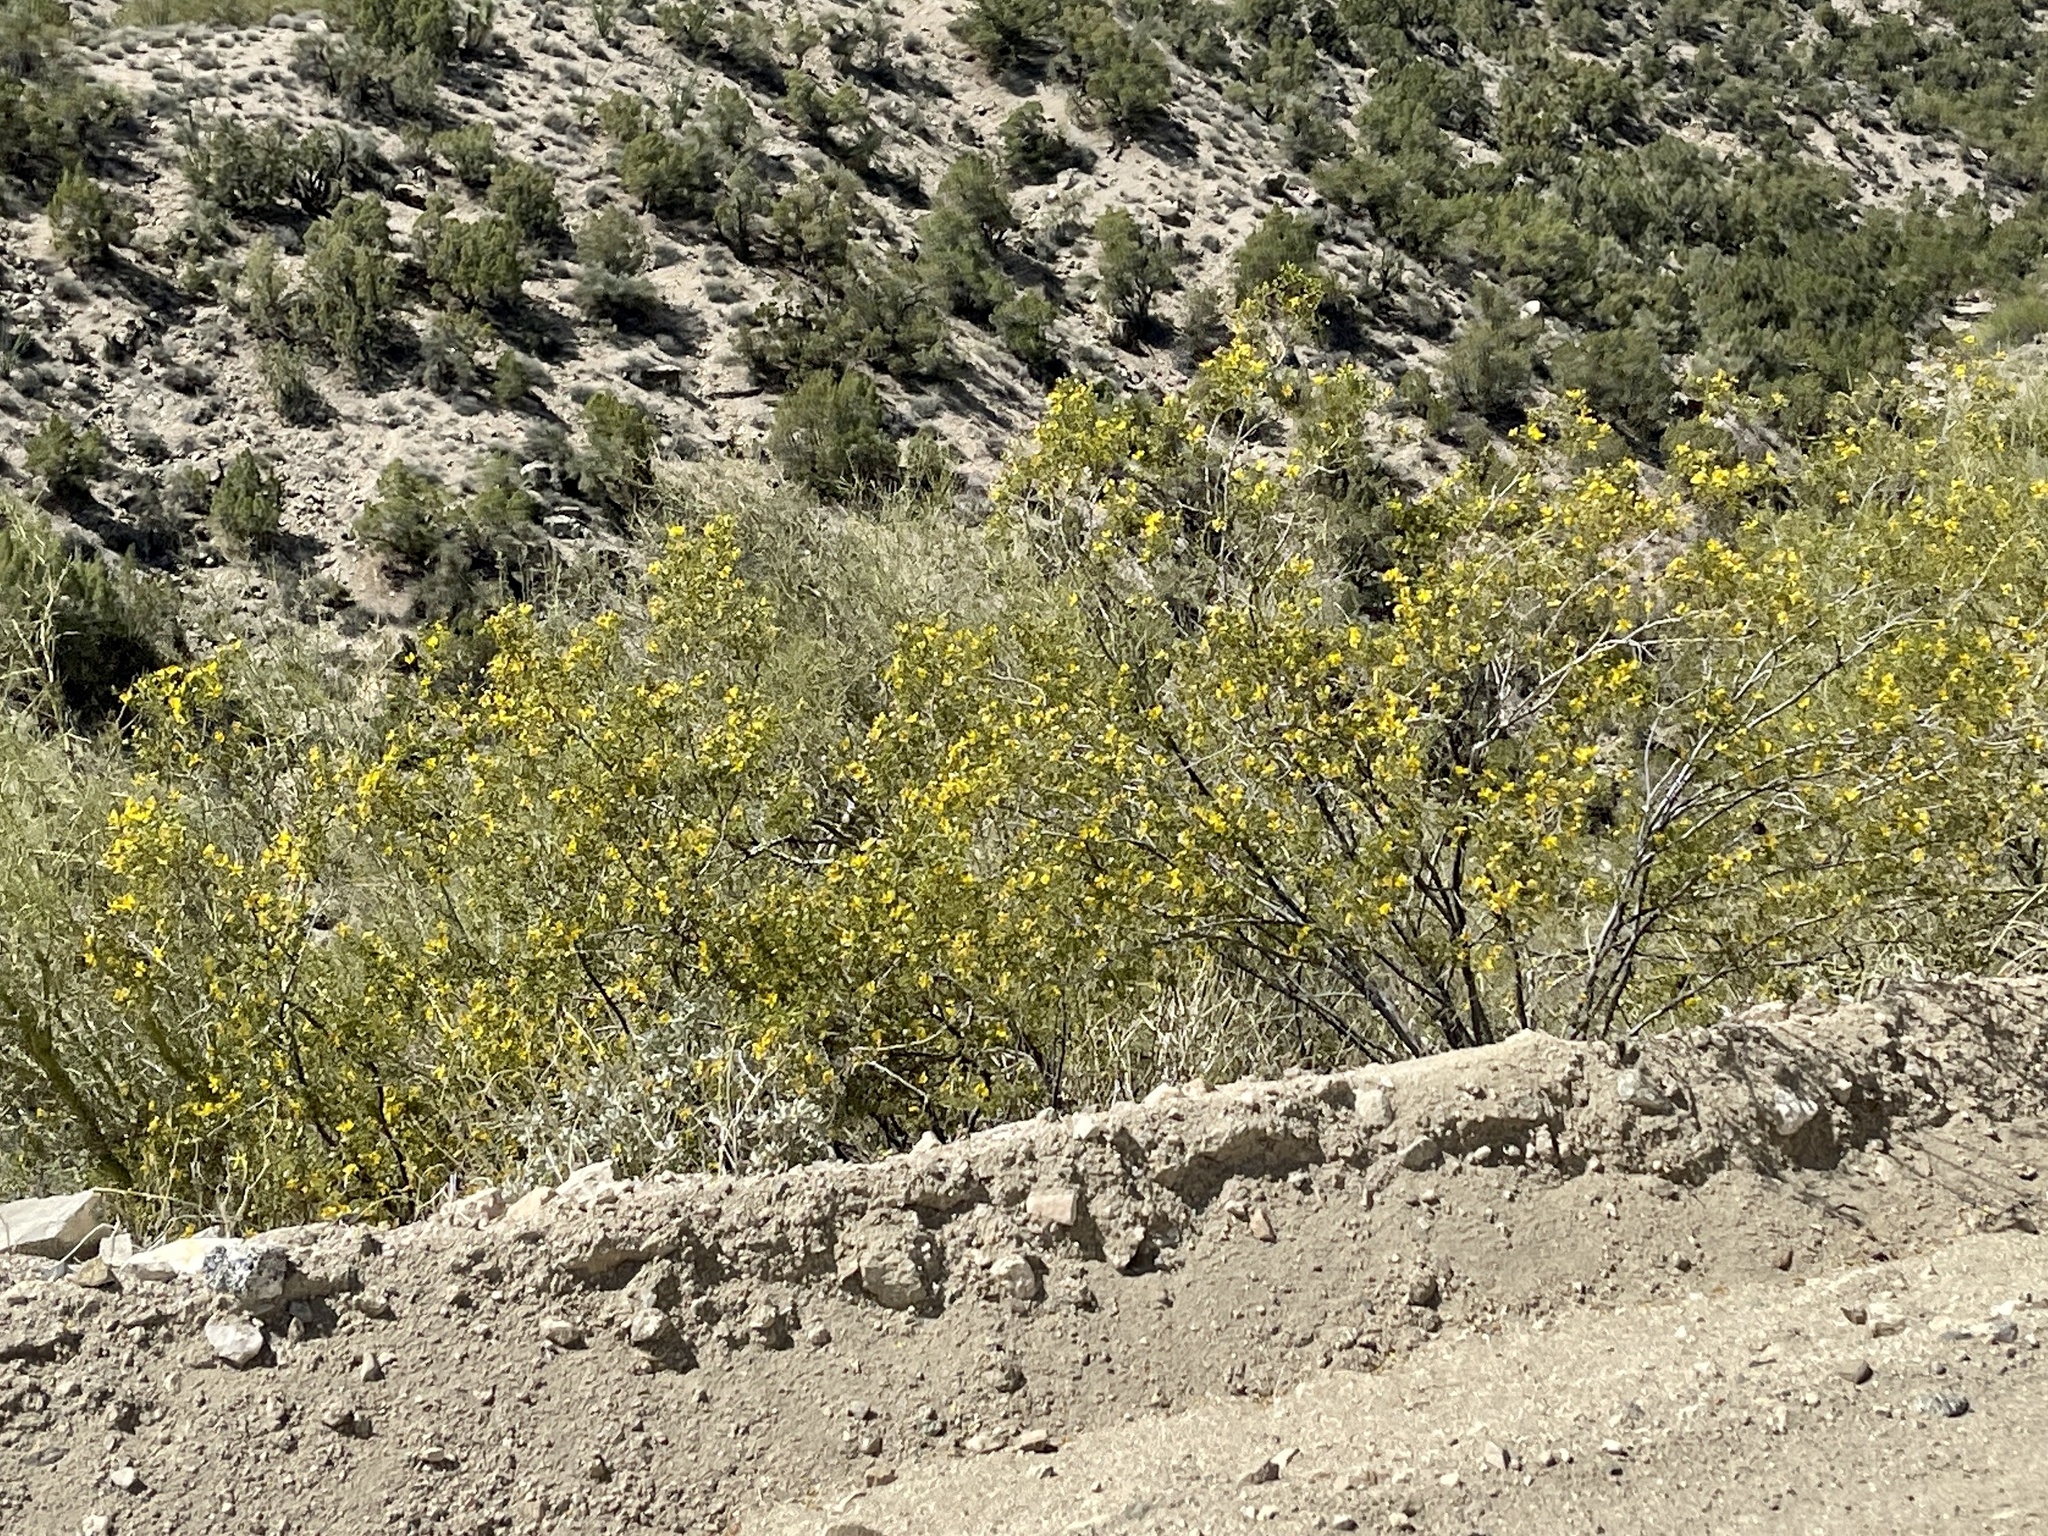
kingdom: Plantae
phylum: Tracheophyta
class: Magnoliopsida
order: Zygophyllales
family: Zygophyllaceae
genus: Larrea
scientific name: Larrea tridentata
